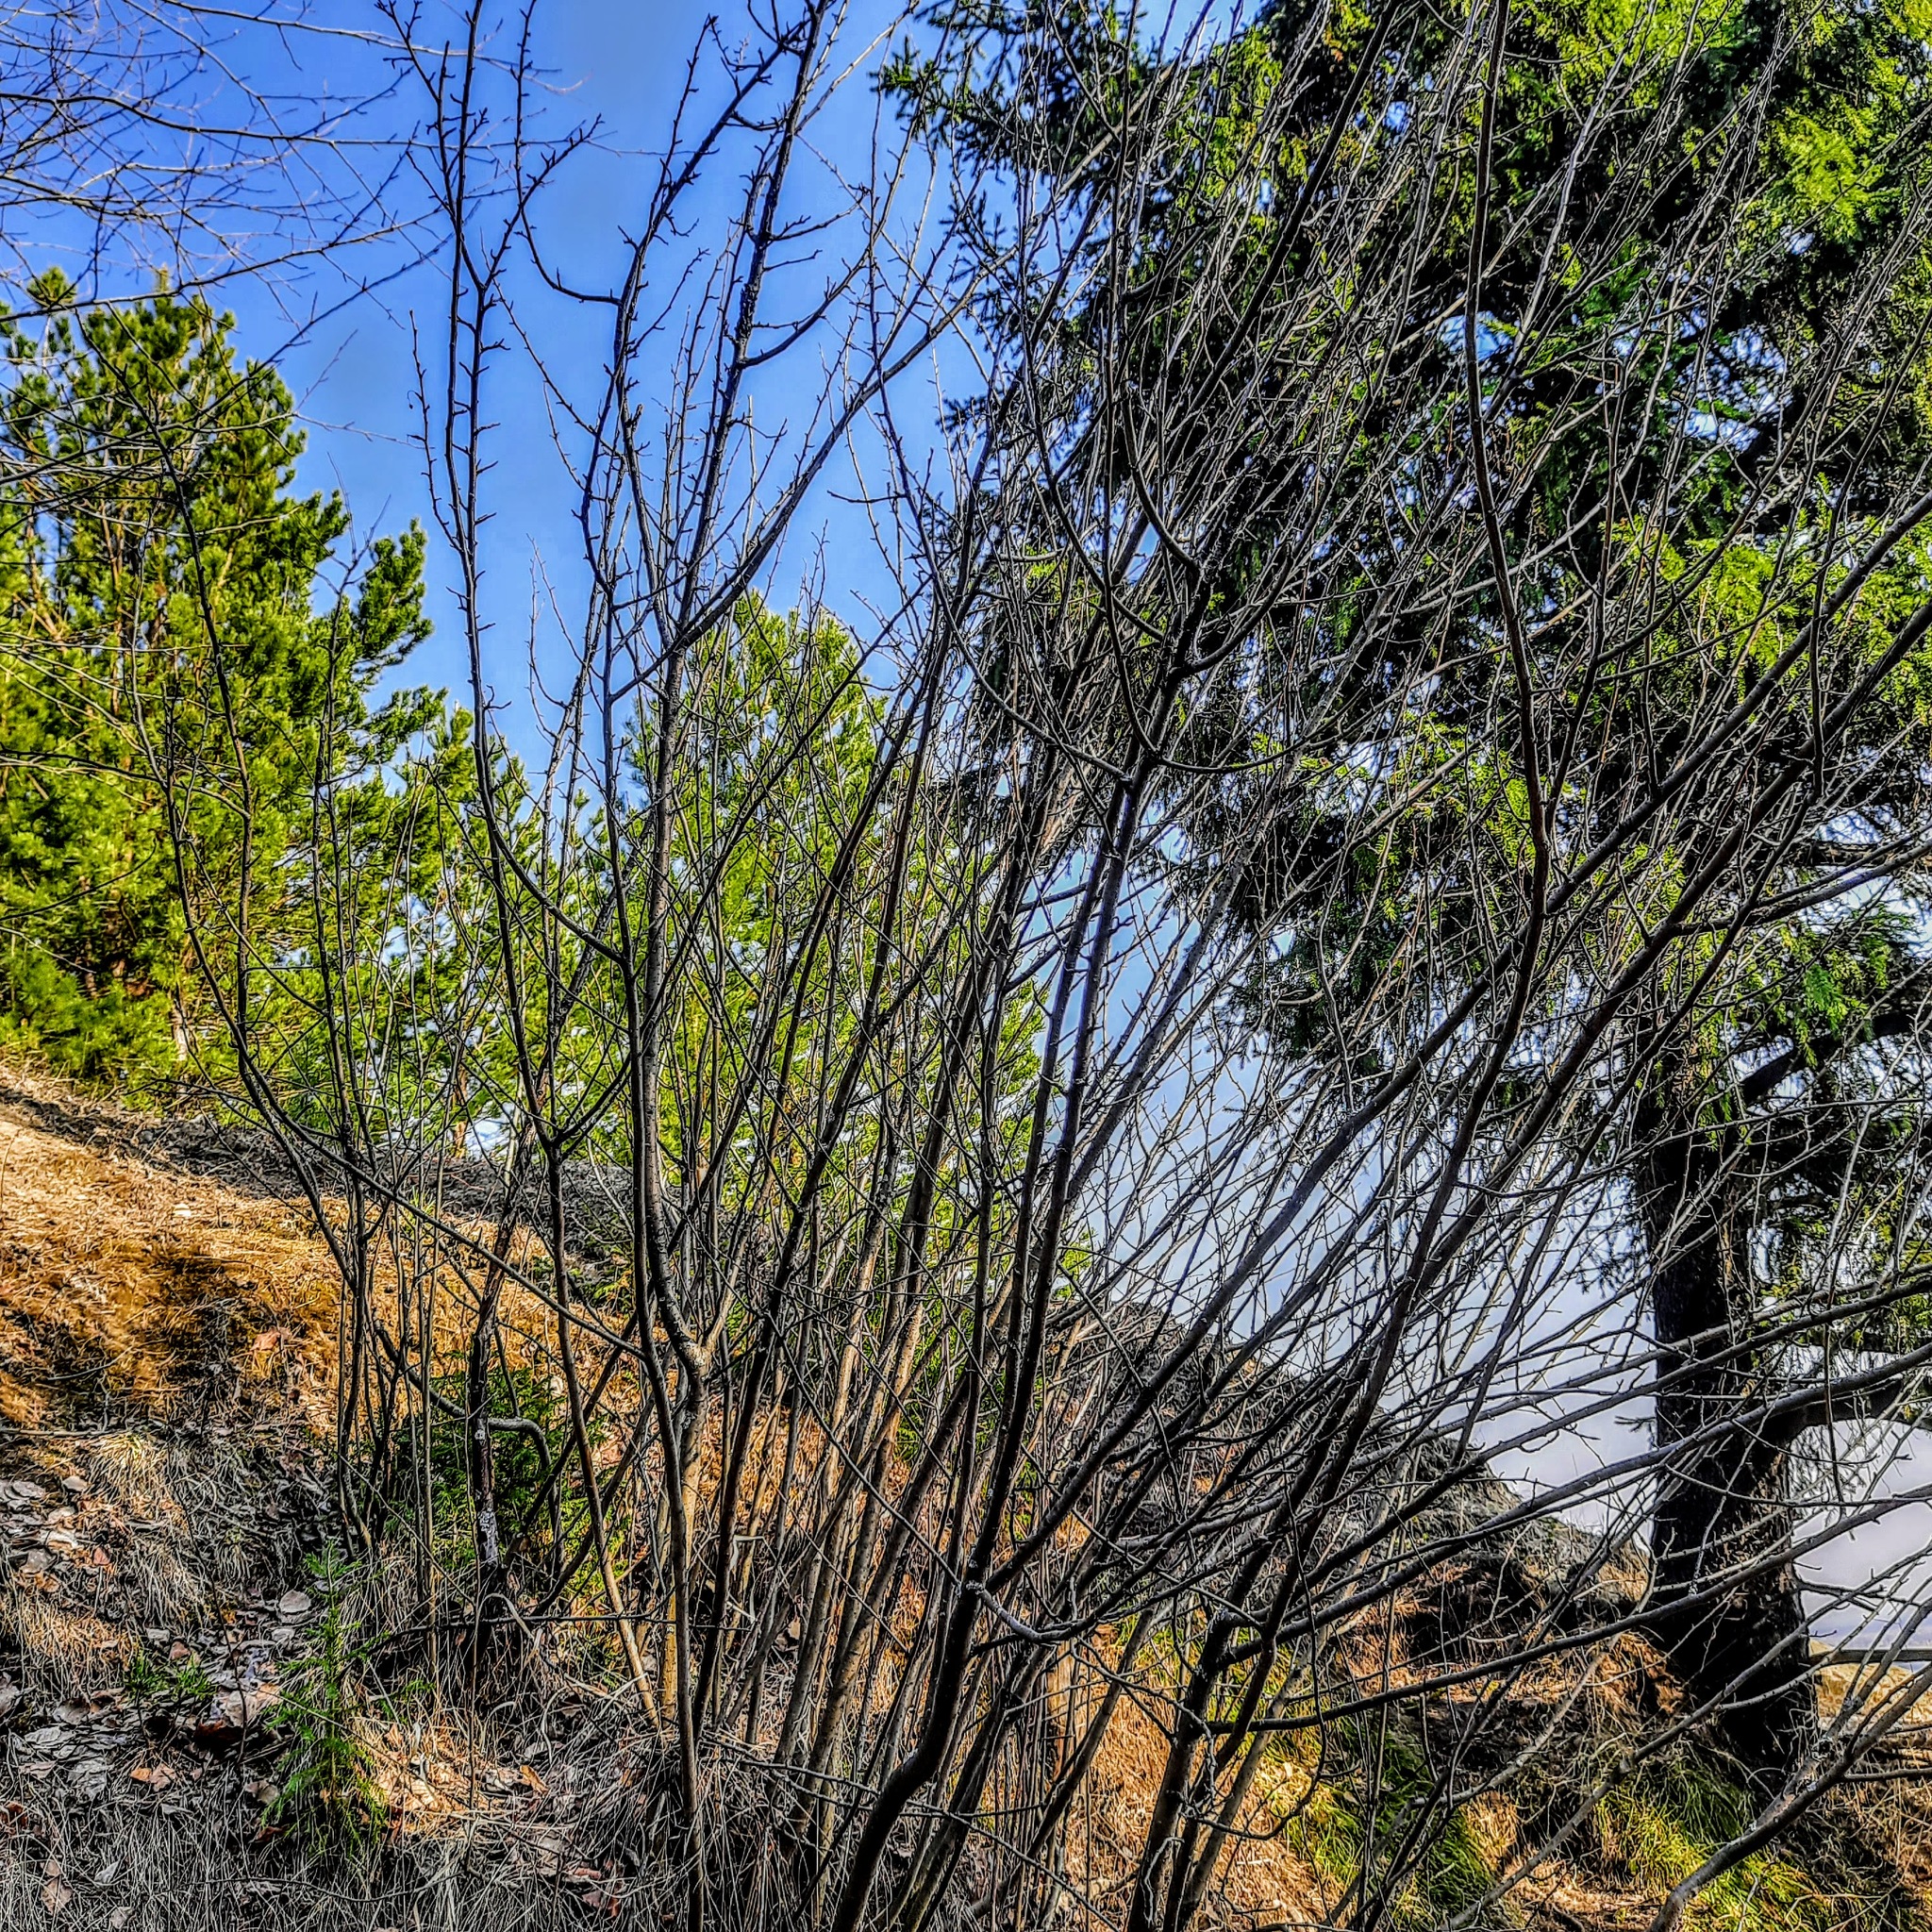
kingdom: Plantae
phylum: Tracheophyta
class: Magnoliopsida
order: Rosales
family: Rosaceae
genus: Cotoneaster
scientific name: Cotoneaster melanocarpus
